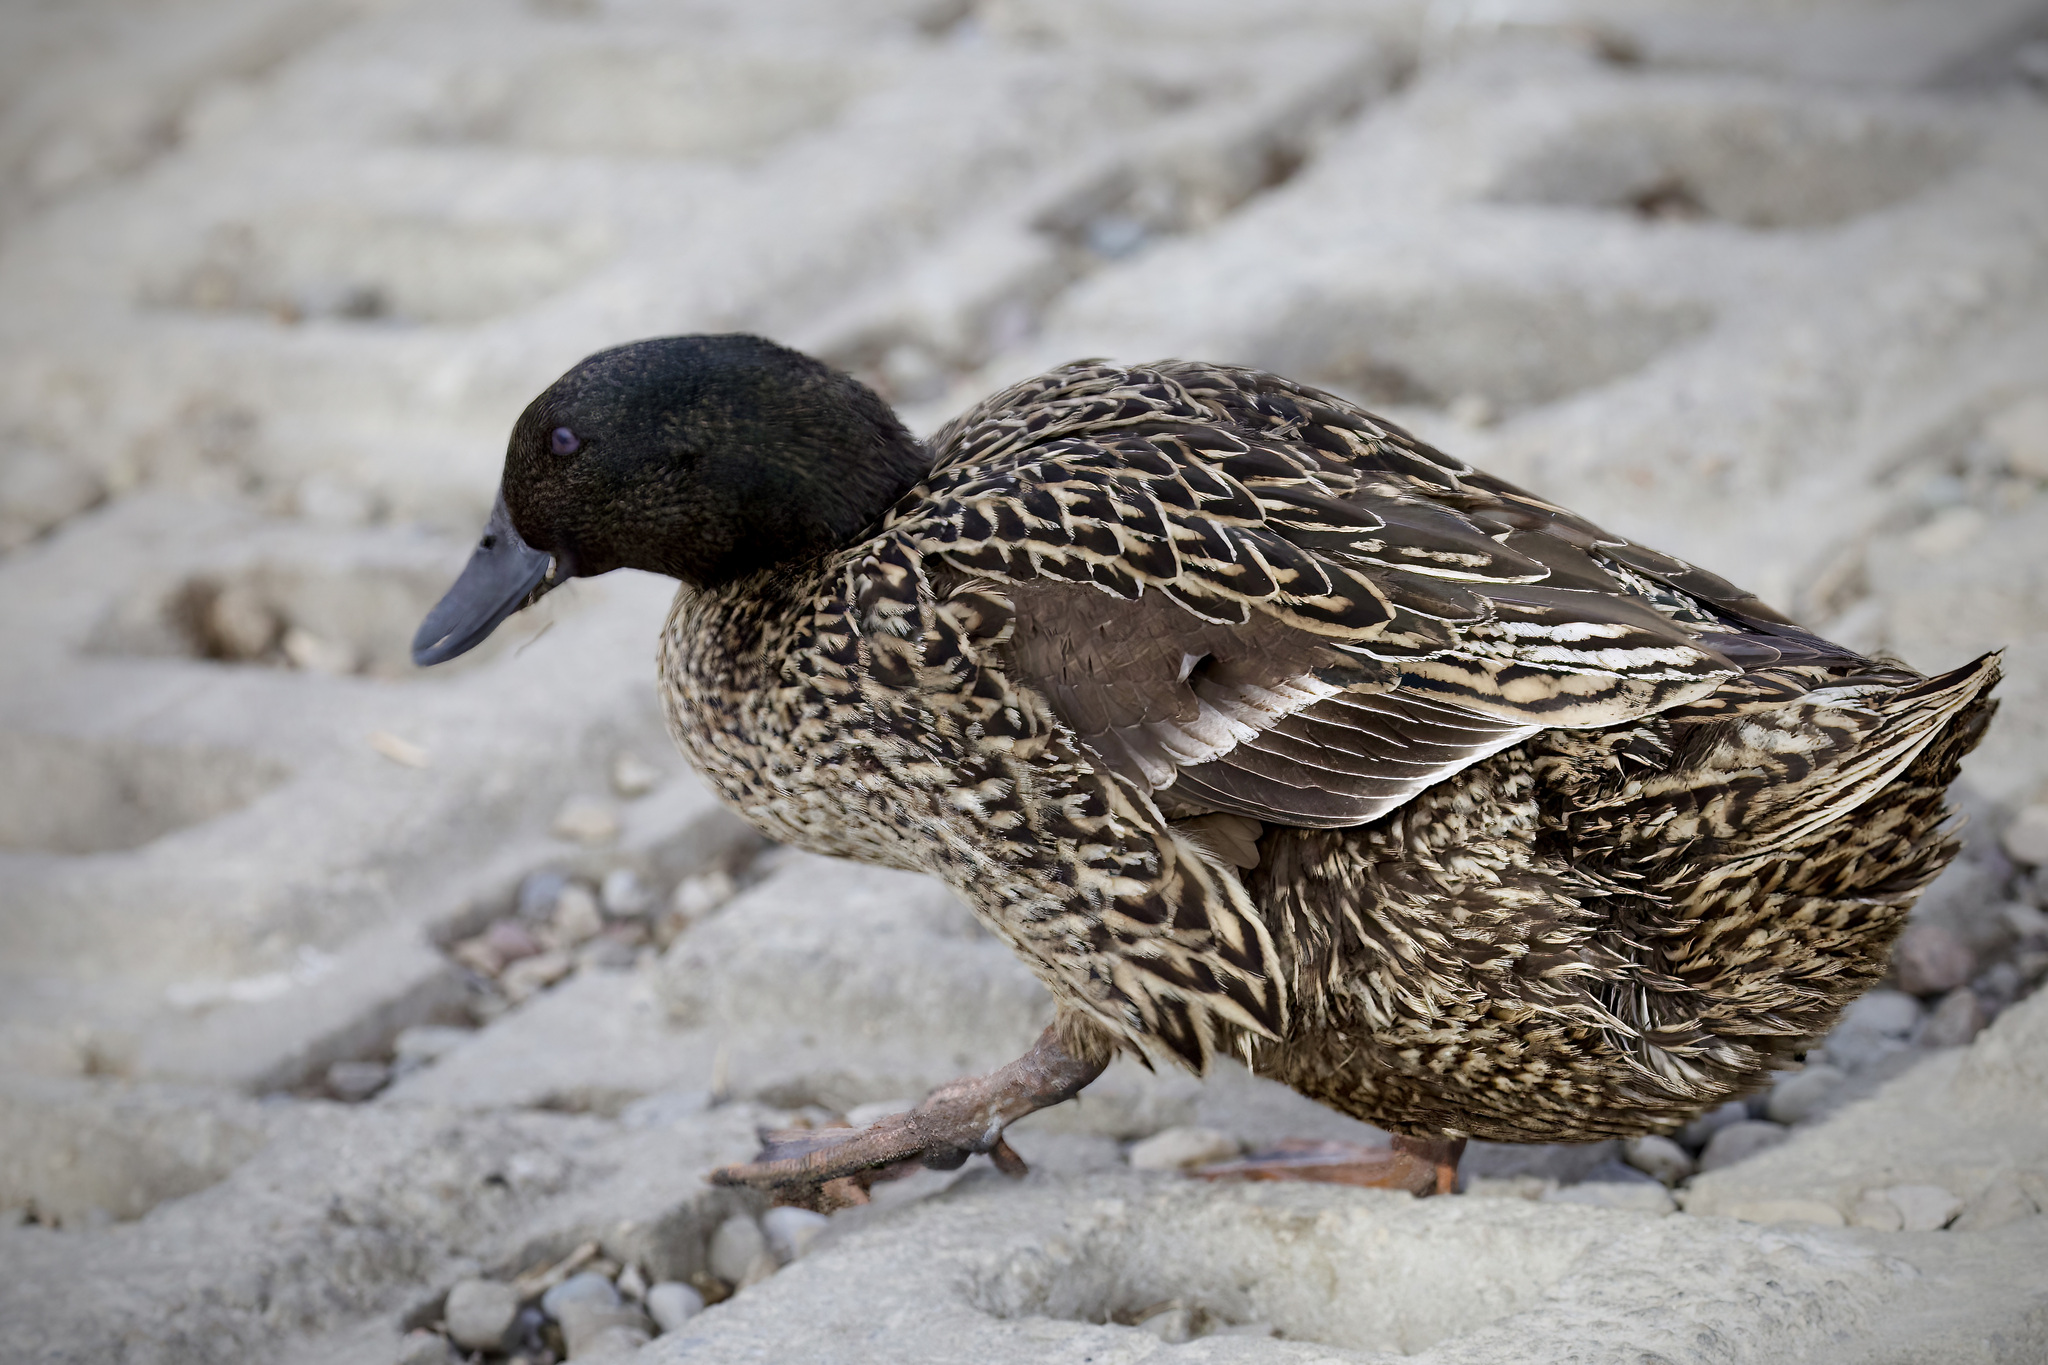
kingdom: Animalia
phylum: Chordata
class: Aves
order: Anseriformes
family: Anatidae
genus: Anas
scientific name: Anas platyrhynchos
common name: Mallard
